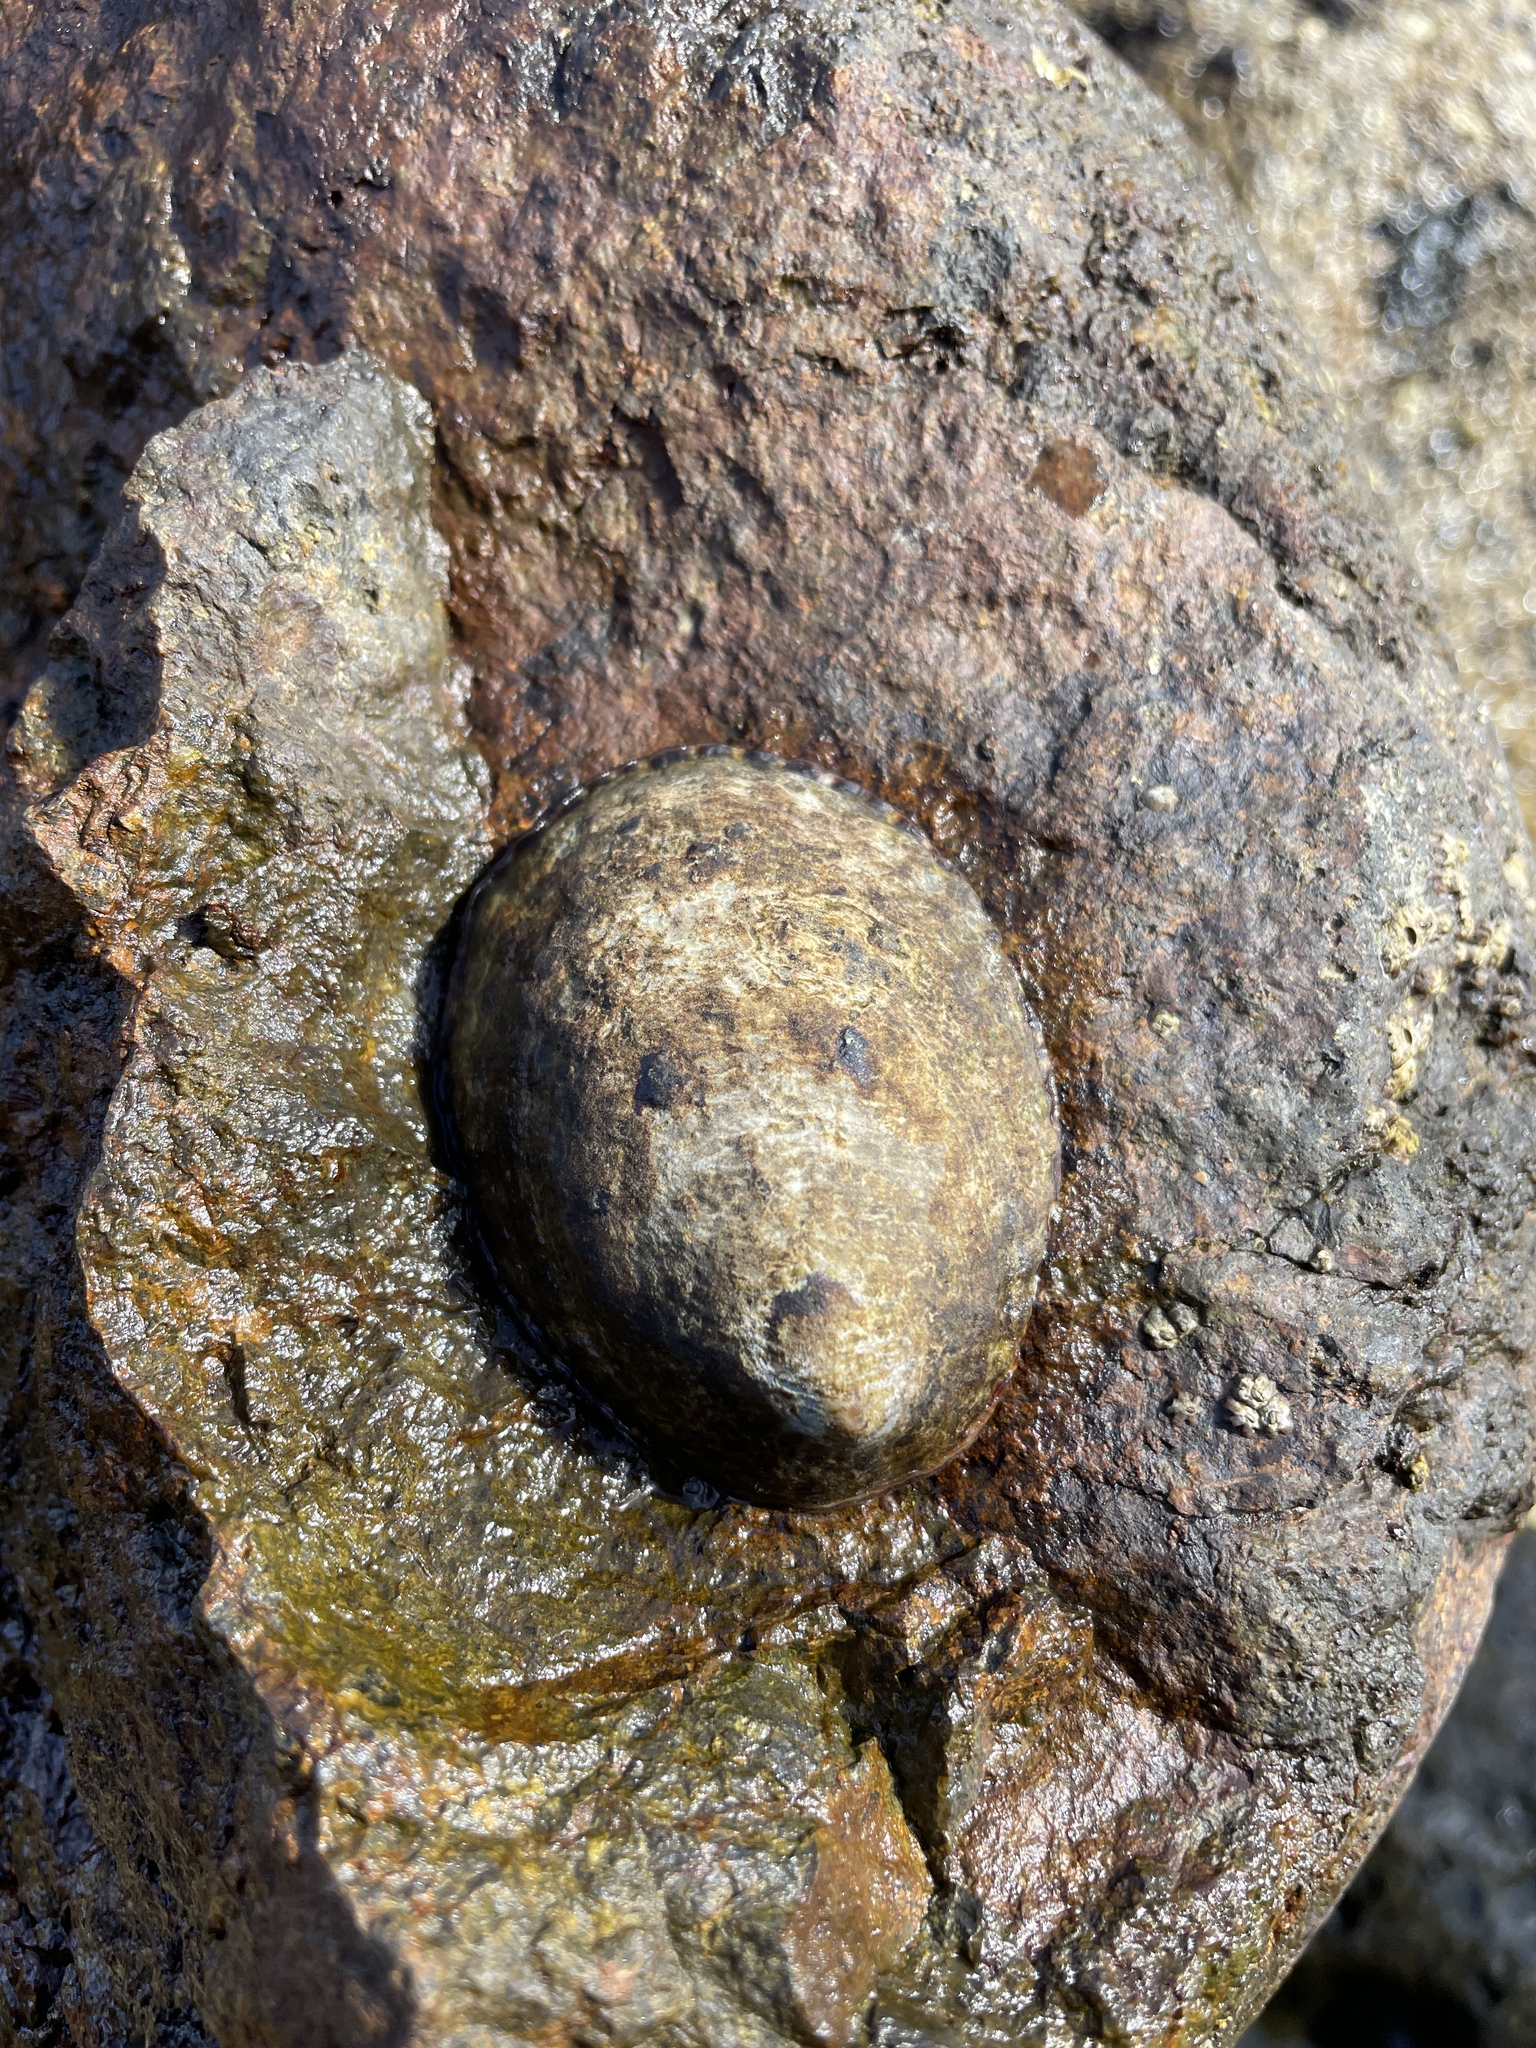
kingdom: Animalia
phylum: Mollusca
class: Gastropoda
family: Lottiidae
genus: Lottia
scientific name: Lottia gigantea
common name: Owl limpet
